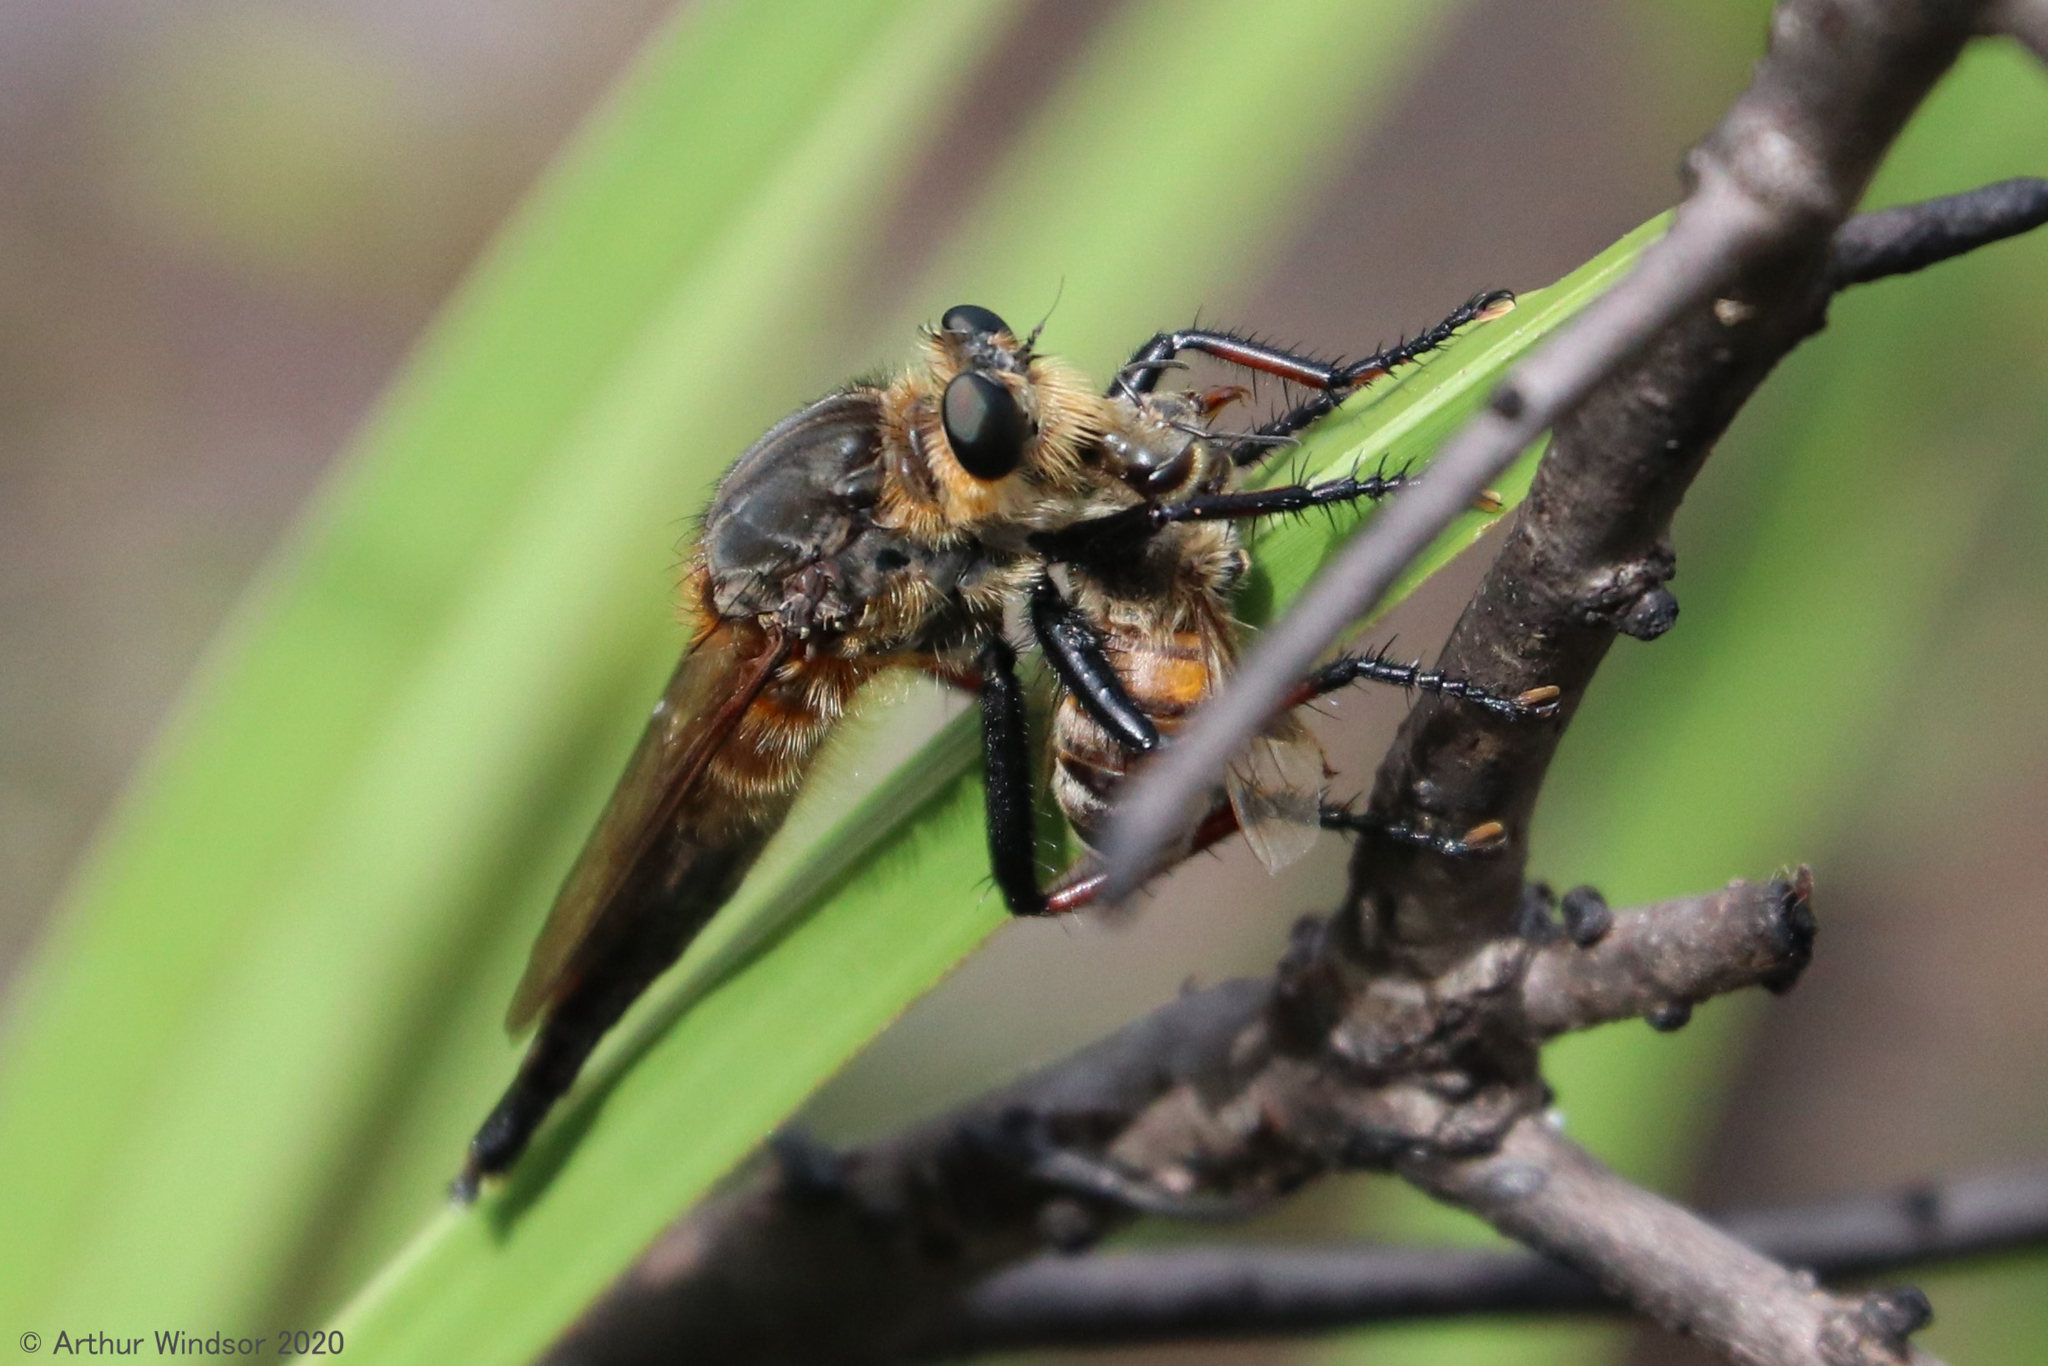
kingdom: Animalia
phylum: Arthropoda
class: Insecta
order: Diptera
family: Asilidae
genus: Proctacanthus
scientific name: Proctacanthus fulviventris
